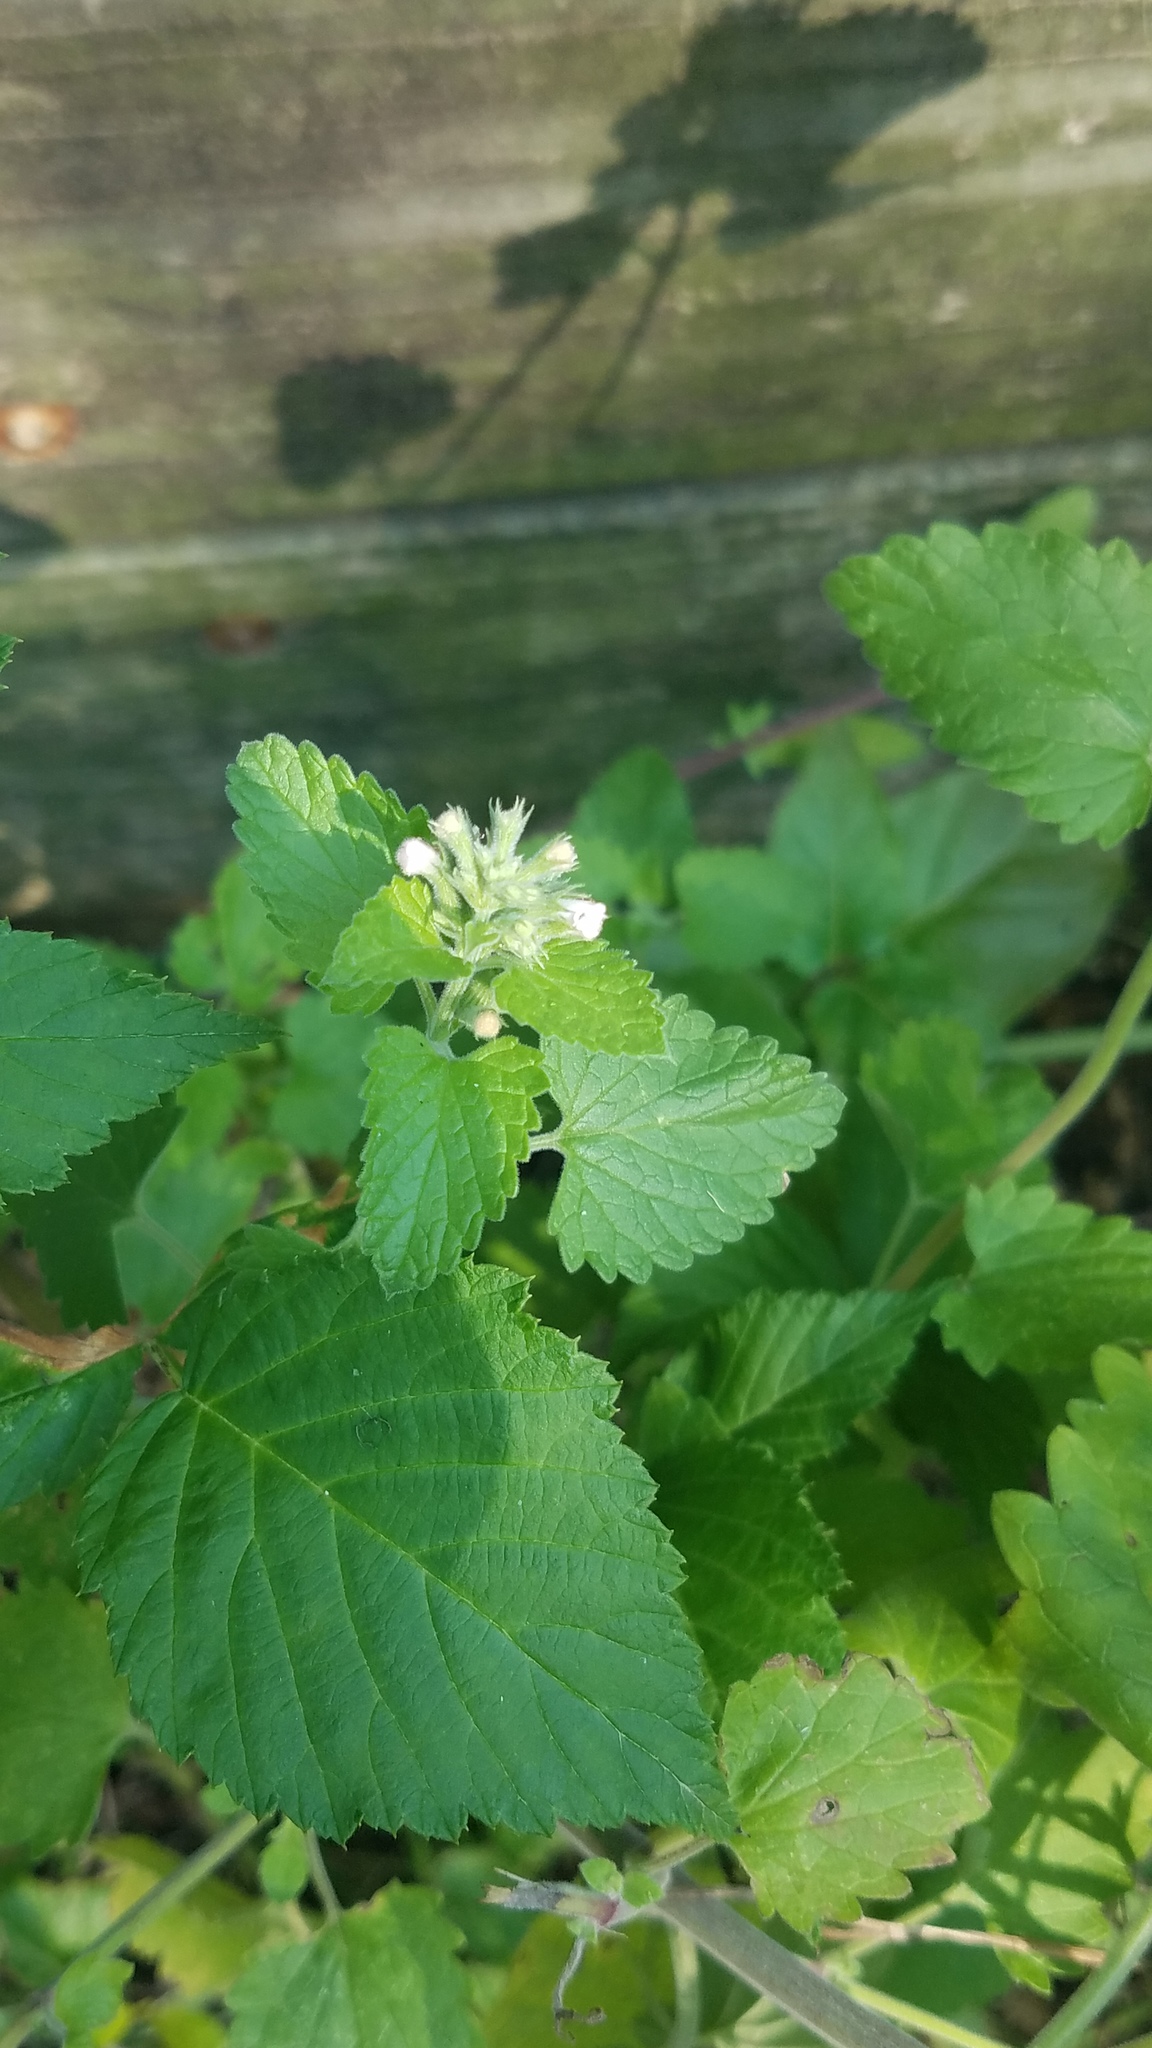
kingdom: Plantae
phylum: Tracheophyta
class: Magnoliopsida
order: Lamiales
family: Lamiaceae
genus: Nepeta
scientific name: Nepeta cataria
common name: Catnip
